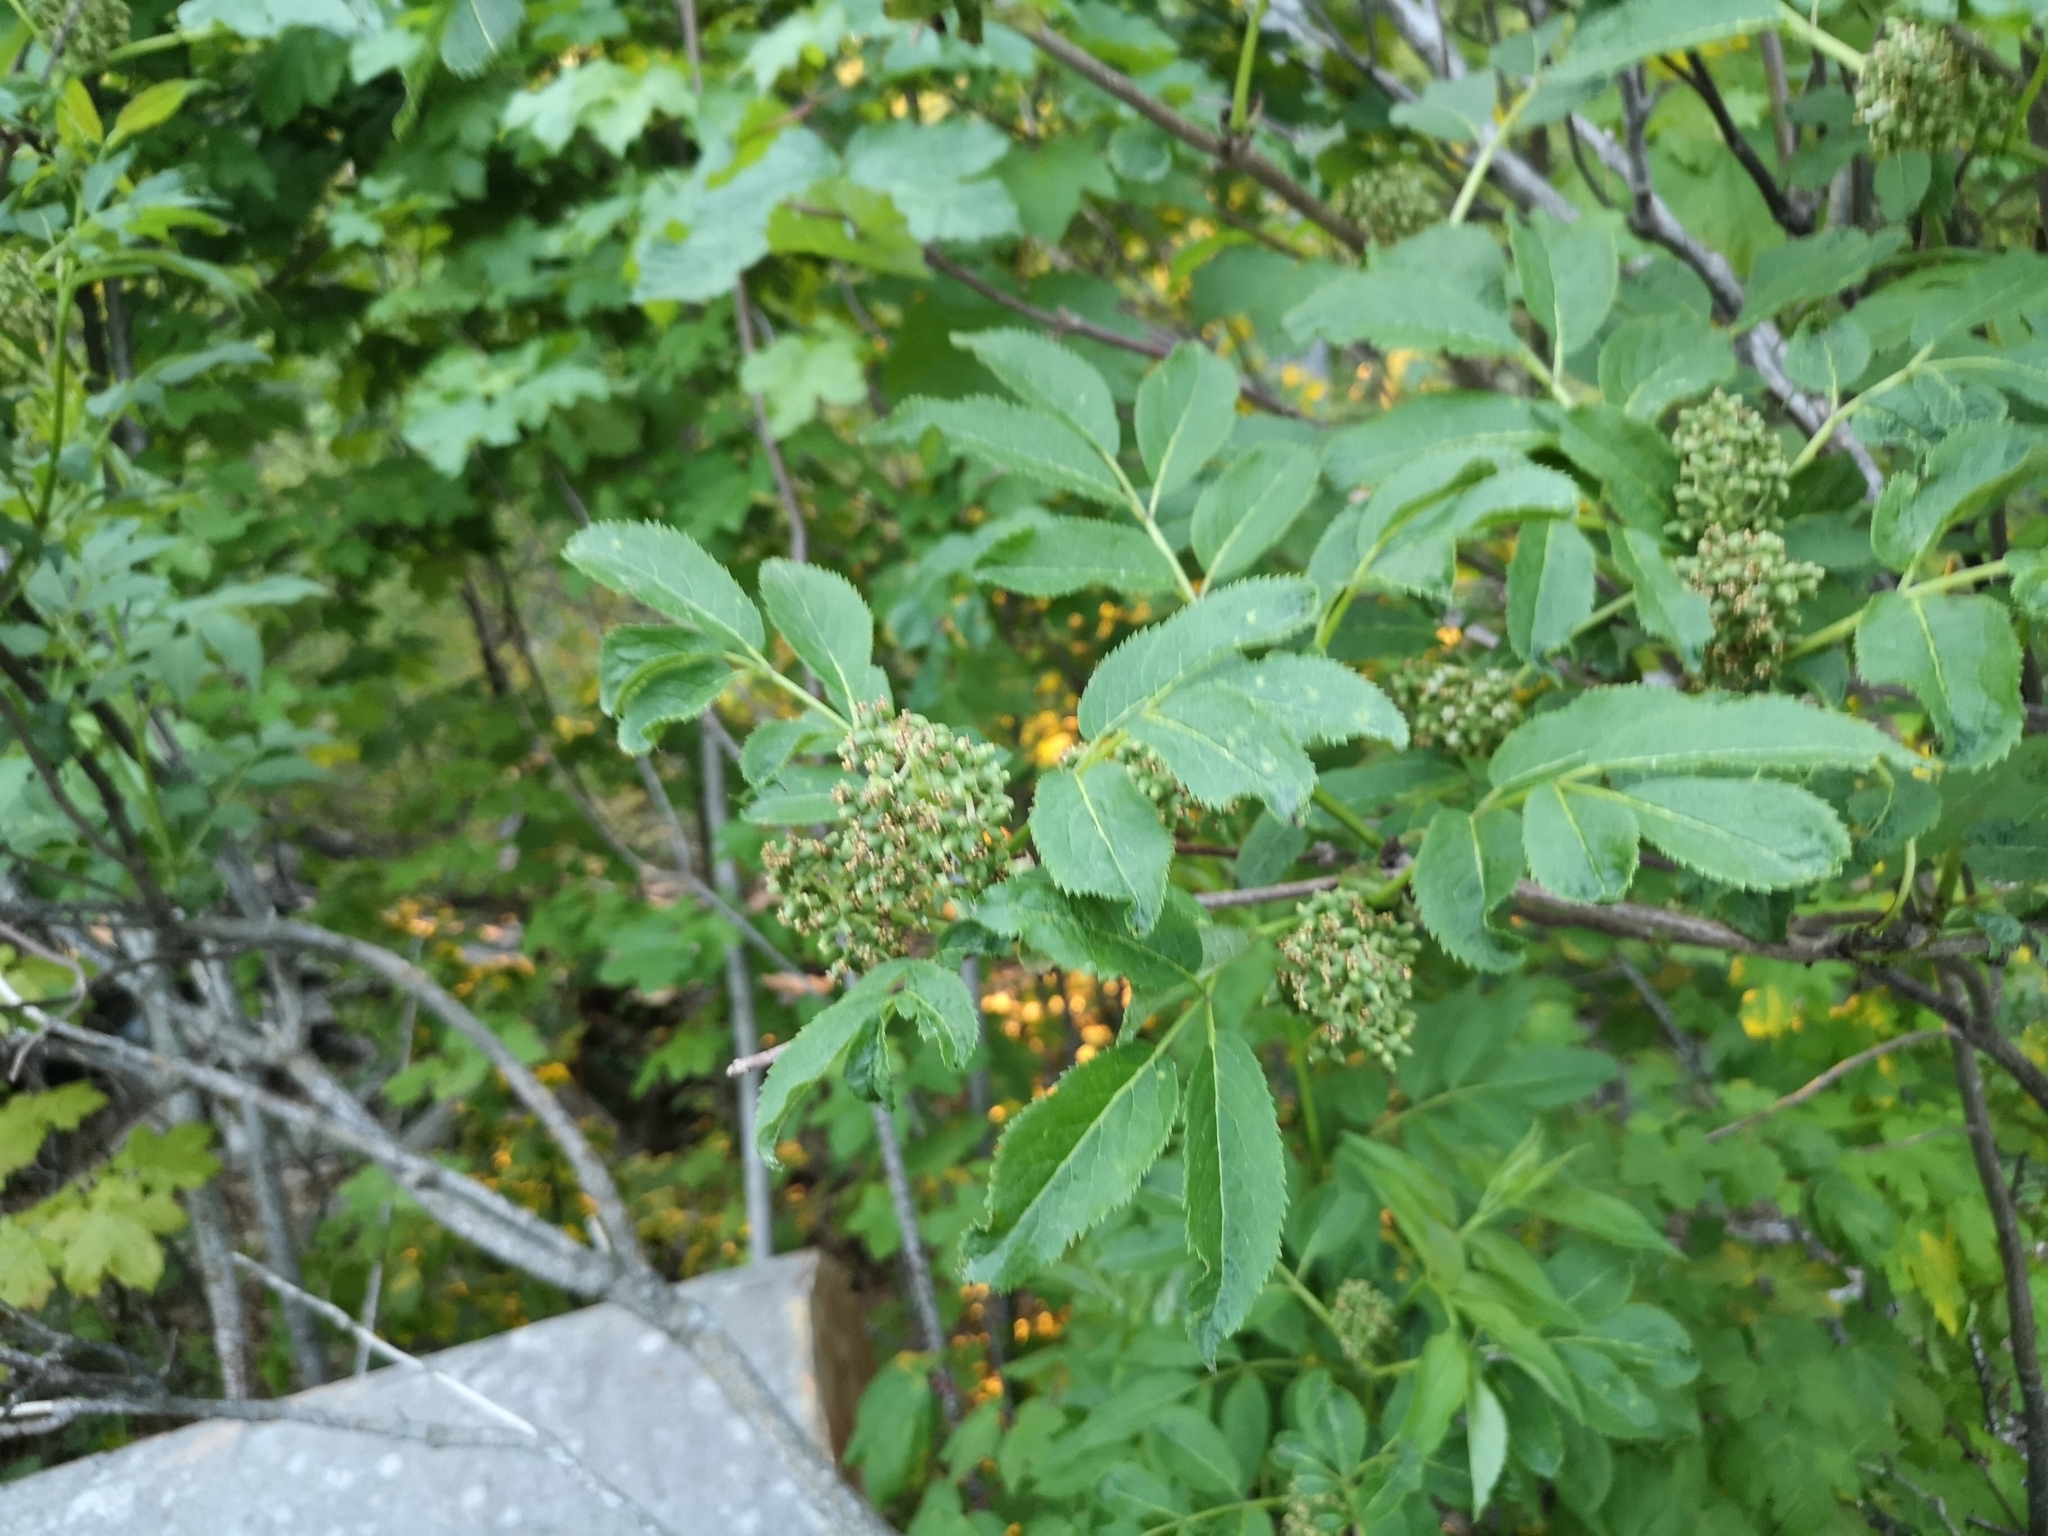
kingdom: Plantae
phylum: Tracheophyta
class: Magnoliopsida
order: Dipsacales
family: Viburnaceae
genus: Sambucus
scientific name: Sambucus racemosa
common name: Red-berried elder
